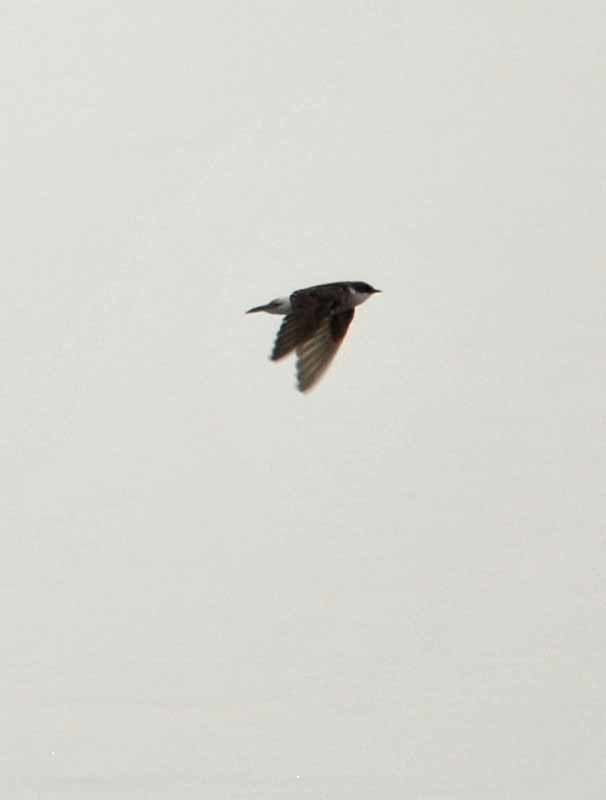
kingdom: Animalia
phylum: Chordata
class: Aves
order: Passeriformes
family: Hirundinidae
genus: Tachycineta
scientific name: Tachycineta albilinea
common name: Mangrove swallow
